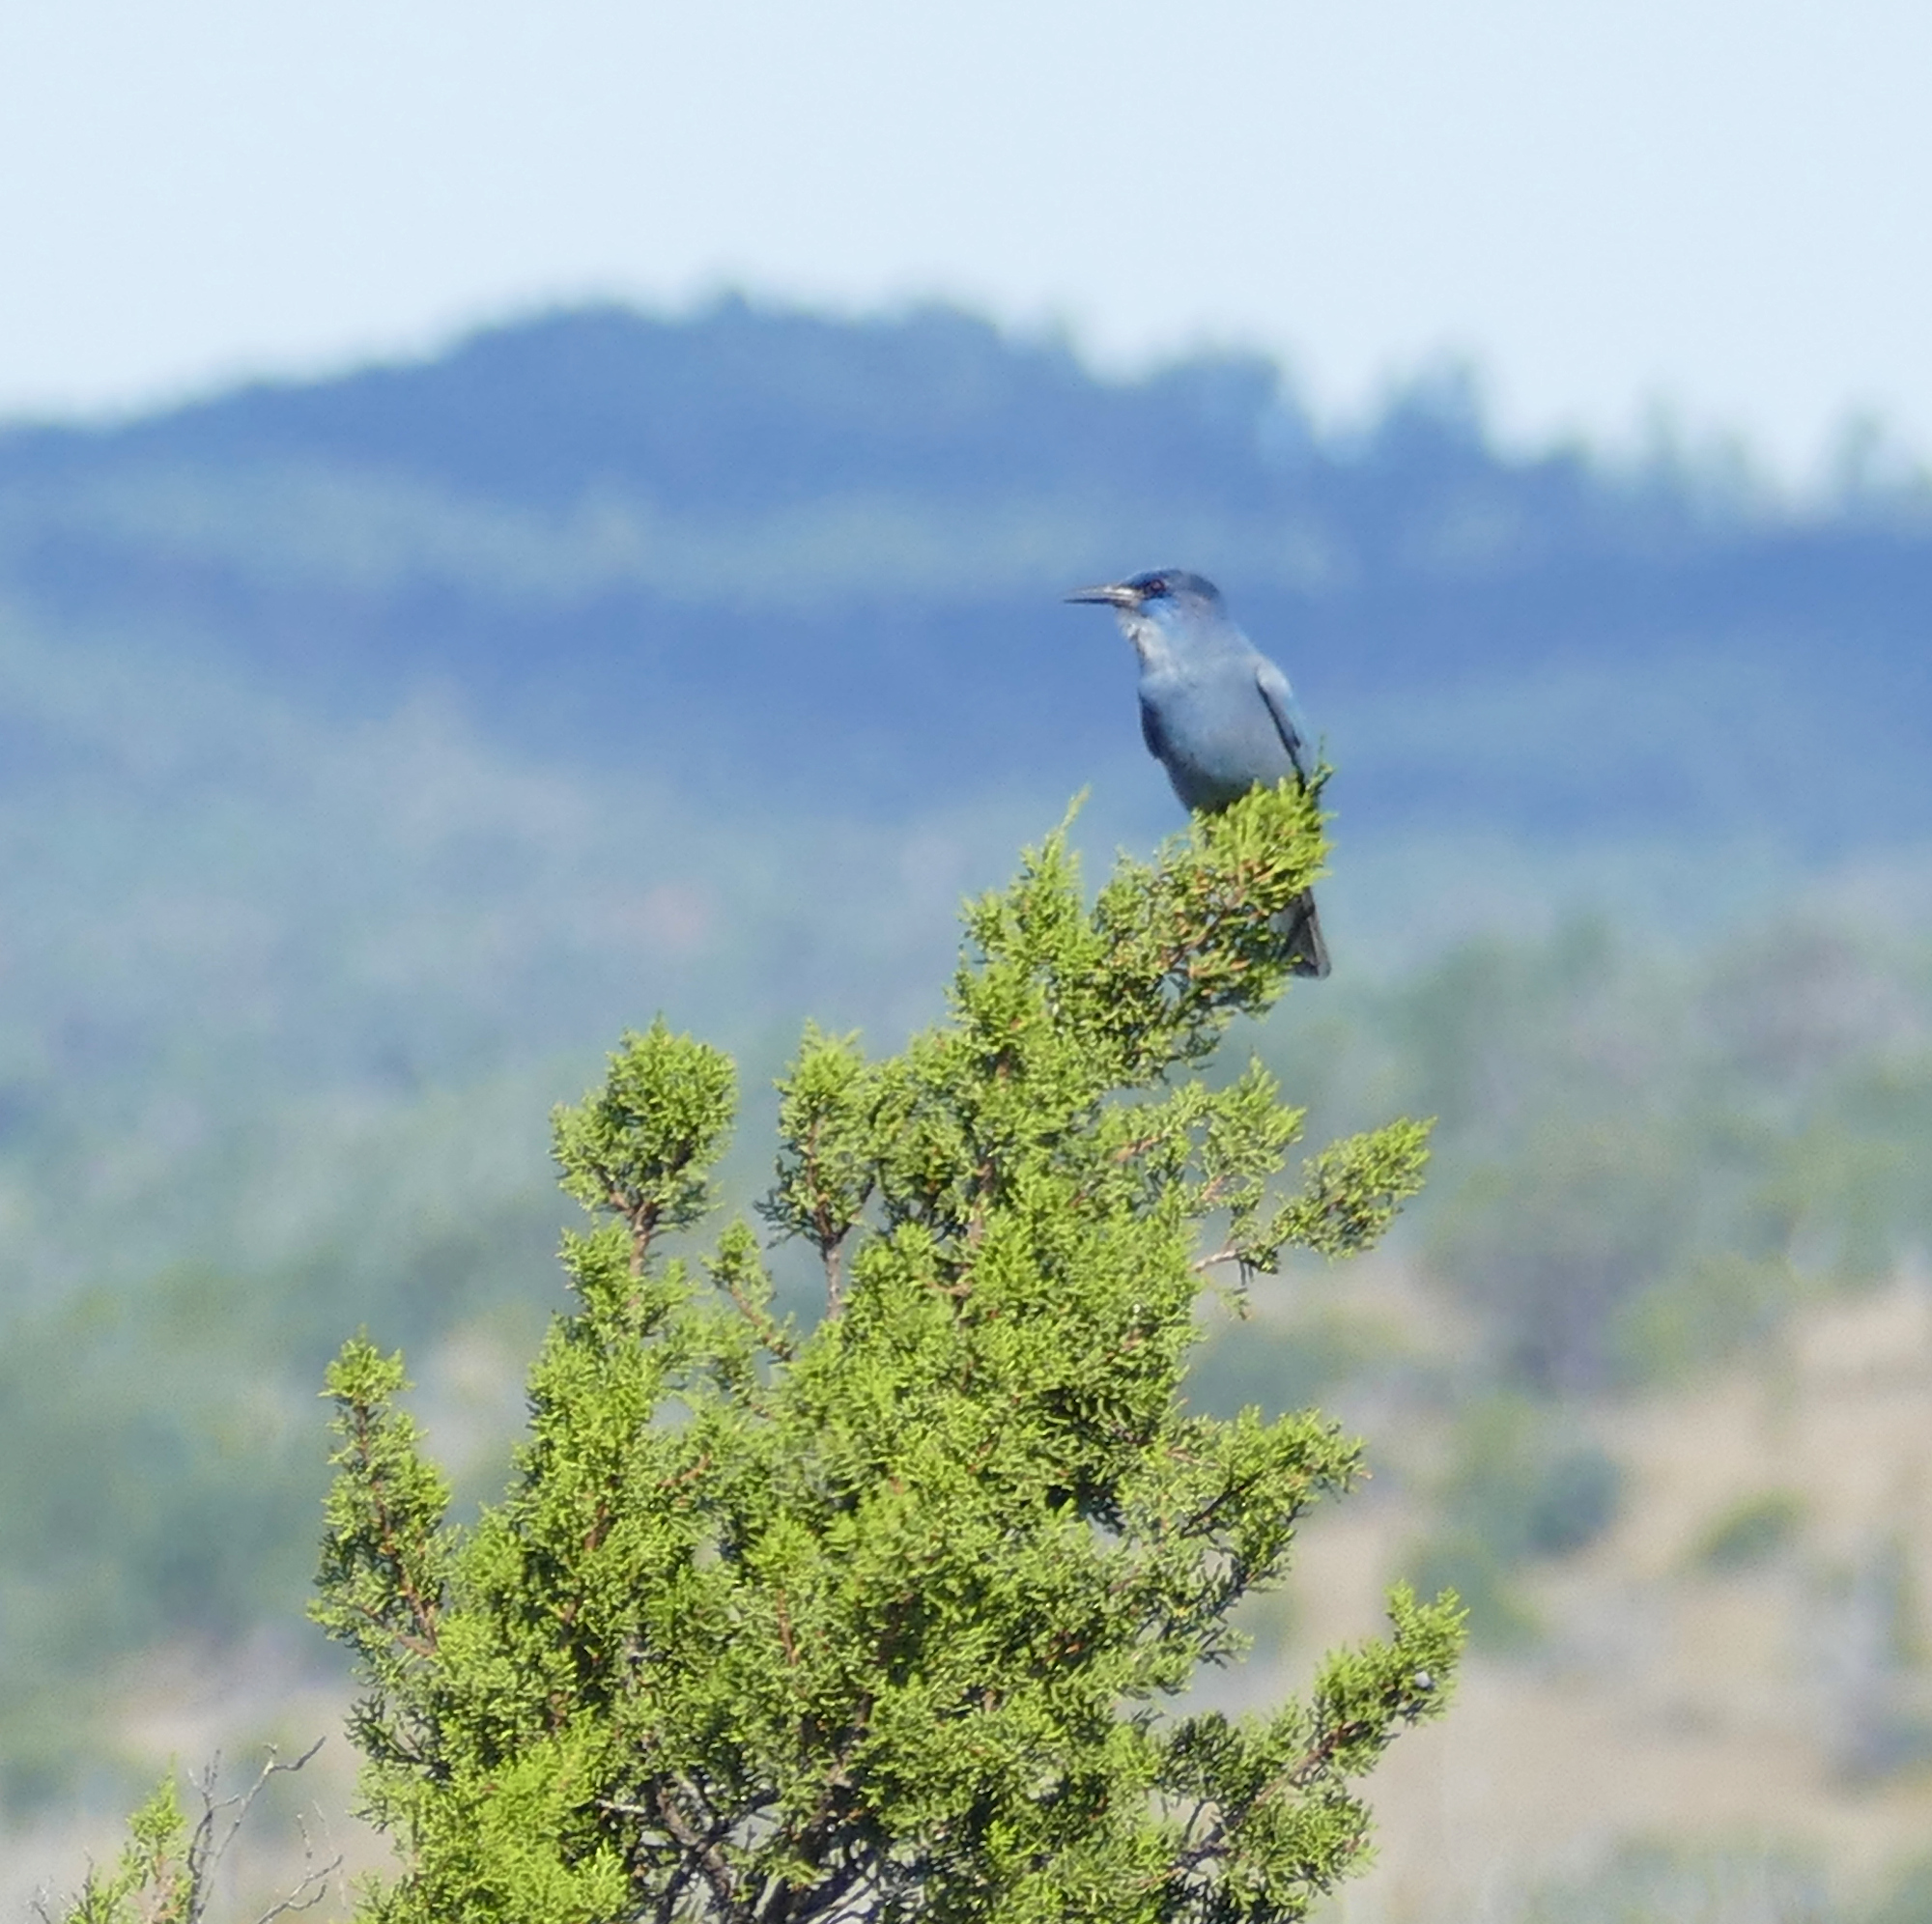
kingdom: Animalia
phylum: Chordata
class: Aves
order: Passeriformes
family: Corvidae
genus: Gymnorhinus
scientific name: Gymnorhinus cyanocephalus
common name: Pinyon jay
